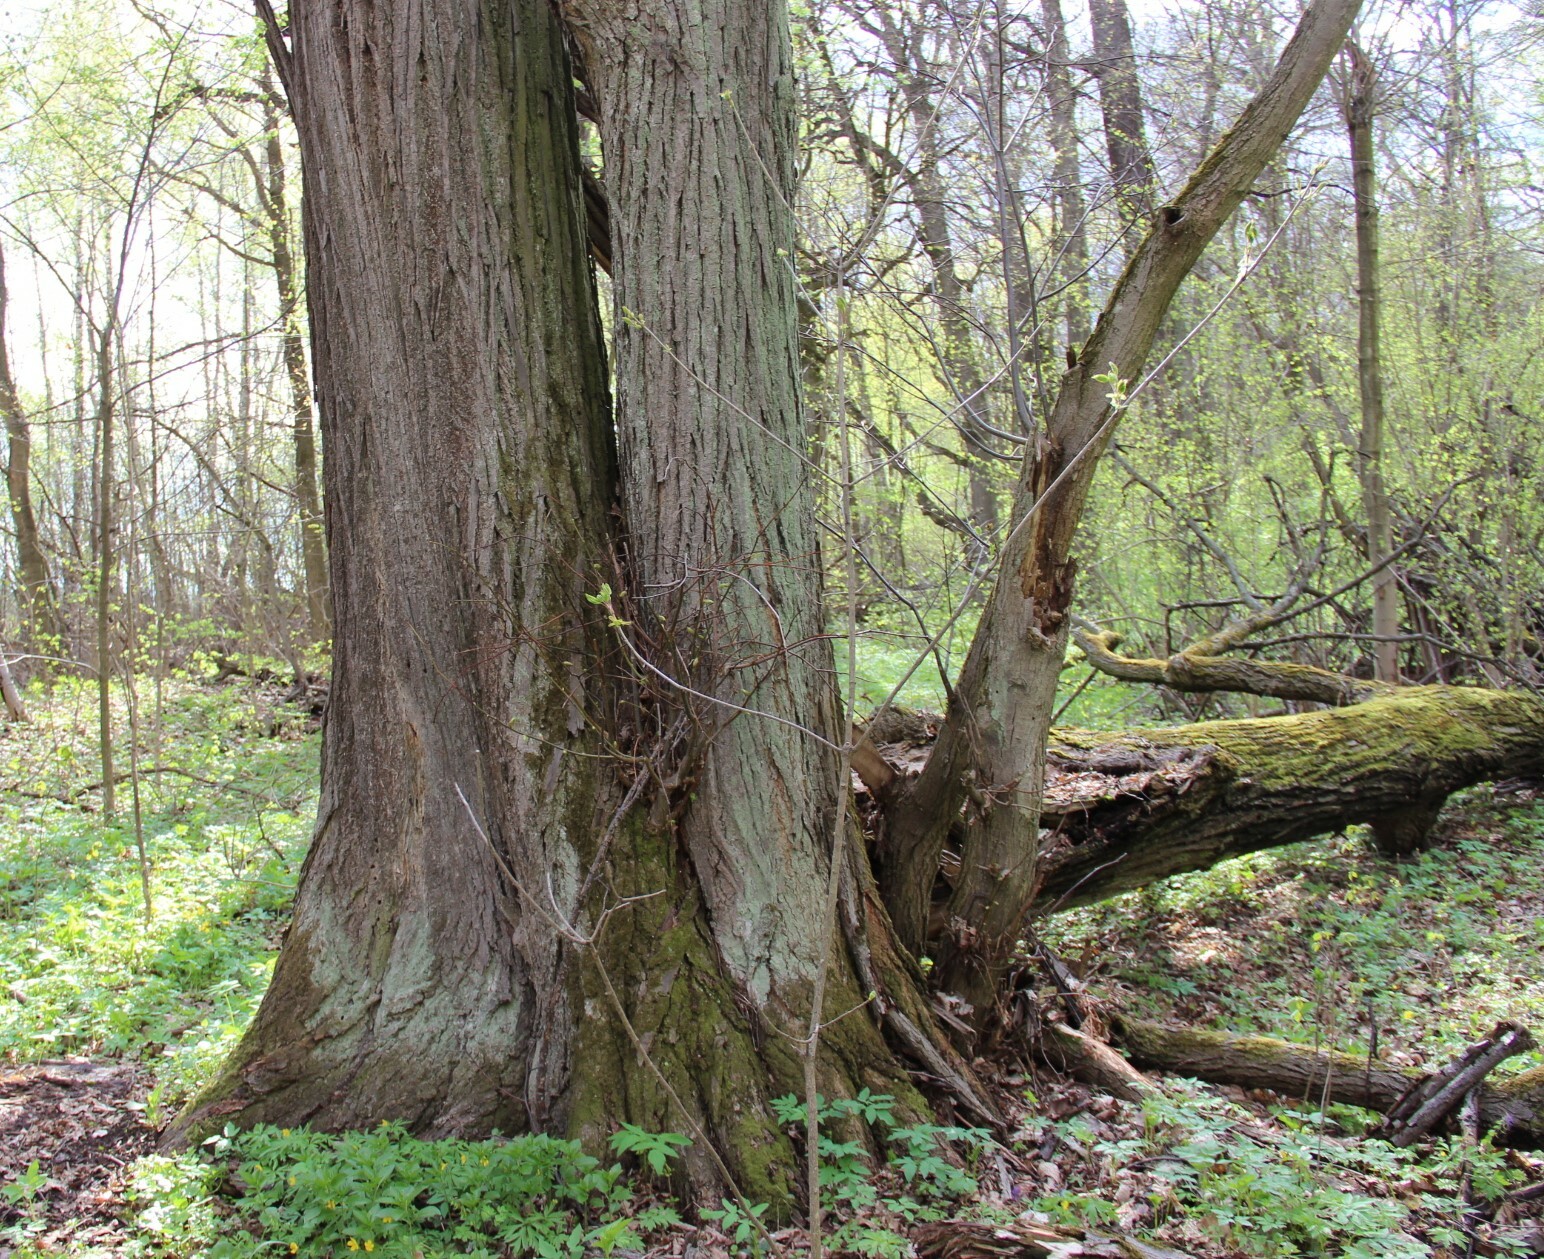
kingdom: Plantae
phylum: Tracheophyta
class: Magnoliopsida
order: Malvales
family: Malvaceae
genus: Tilia
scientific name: Tilia cordata
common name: Small-leaved lime
